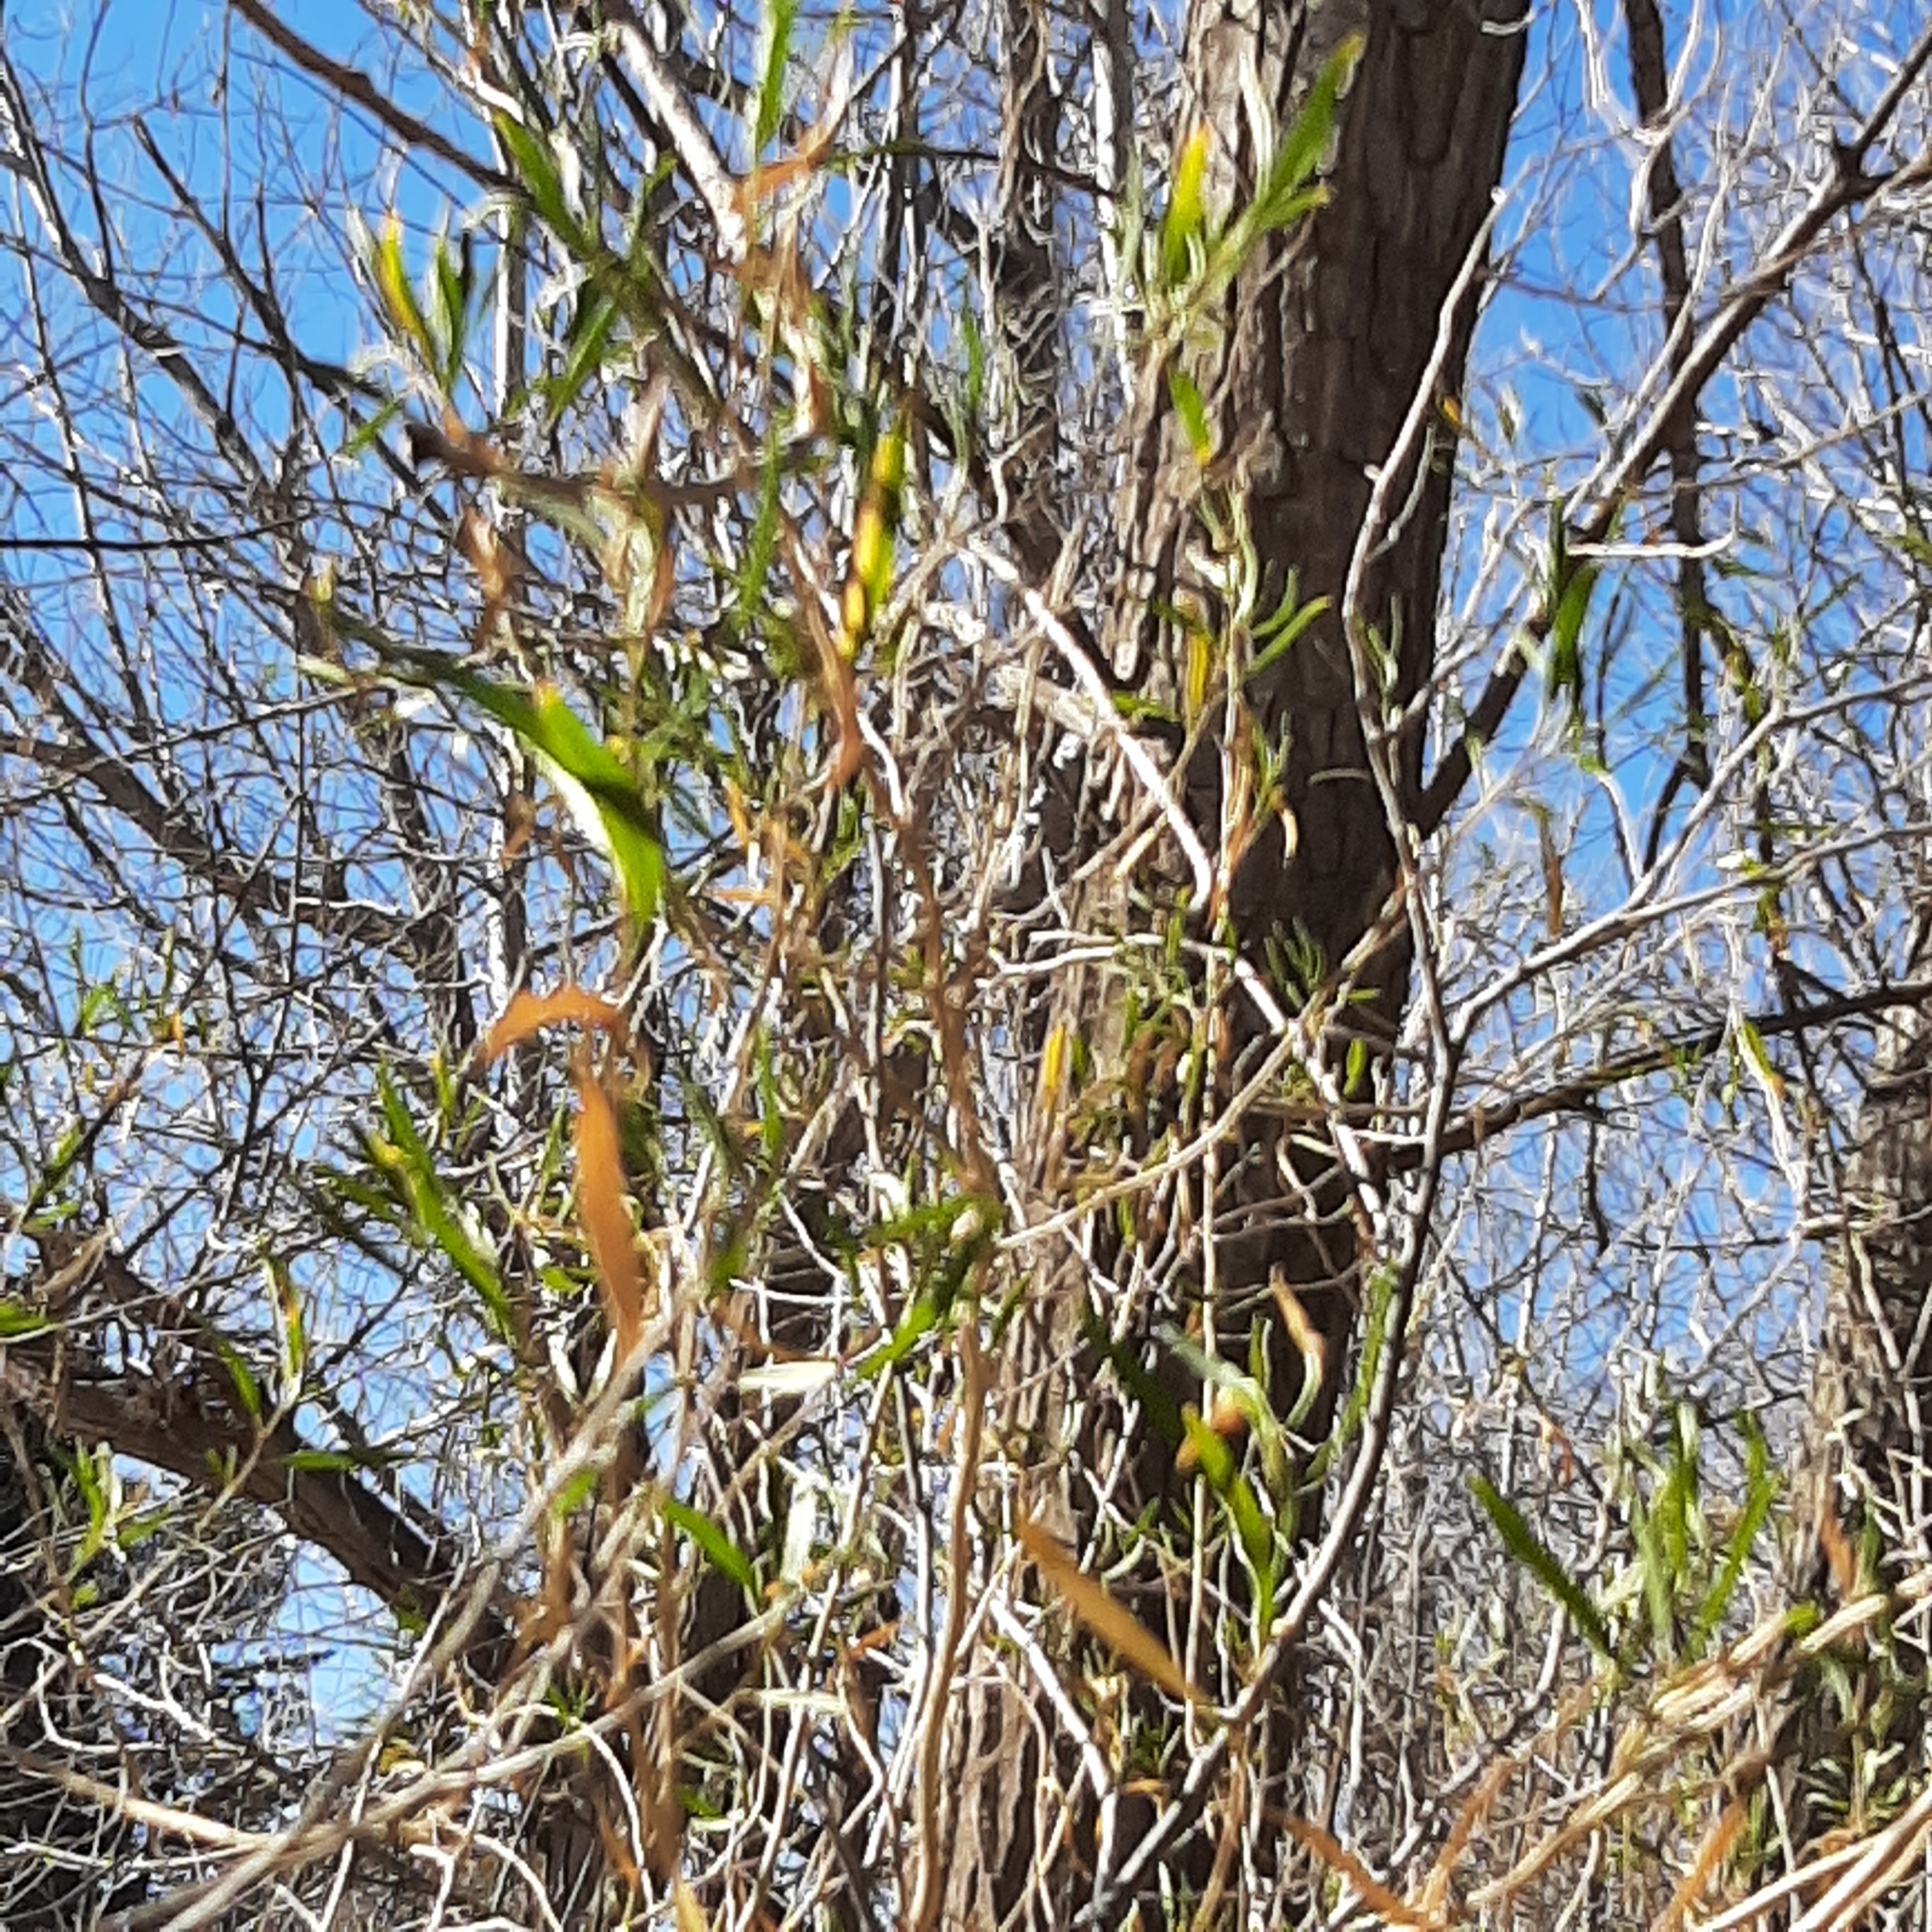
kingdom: Plantae
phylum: Tracheophyta
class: Magnoliopsida
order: Asterales
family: Asteraceae
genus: Baccharis
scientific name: Baccharis salicifolia
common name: Sticky baccharis
